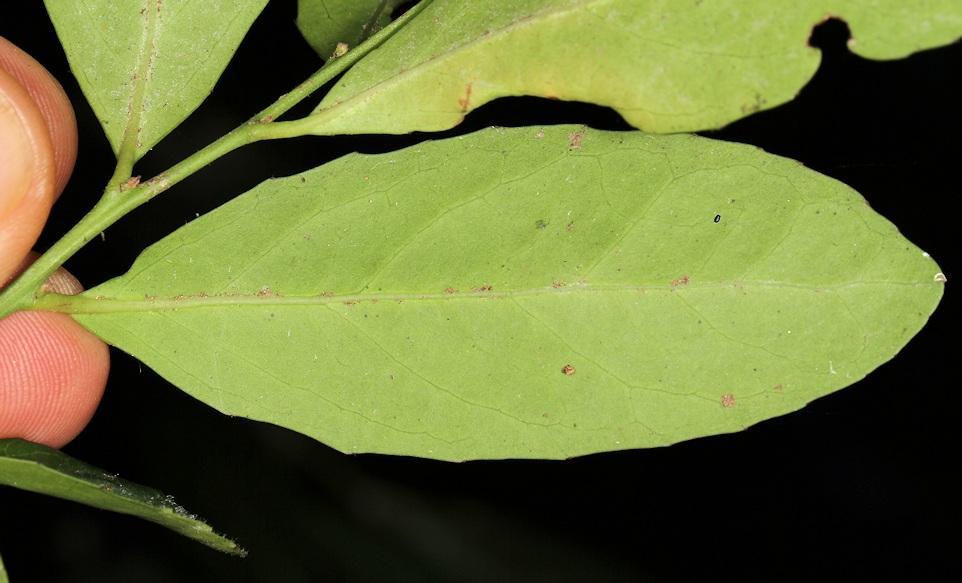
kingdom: Plantae
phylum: Tracheophyta
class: Magnoliopsida
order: Celastrales
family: Celastraceae
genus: Mystroxylon
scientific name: Mystroxylon aethiopicum
